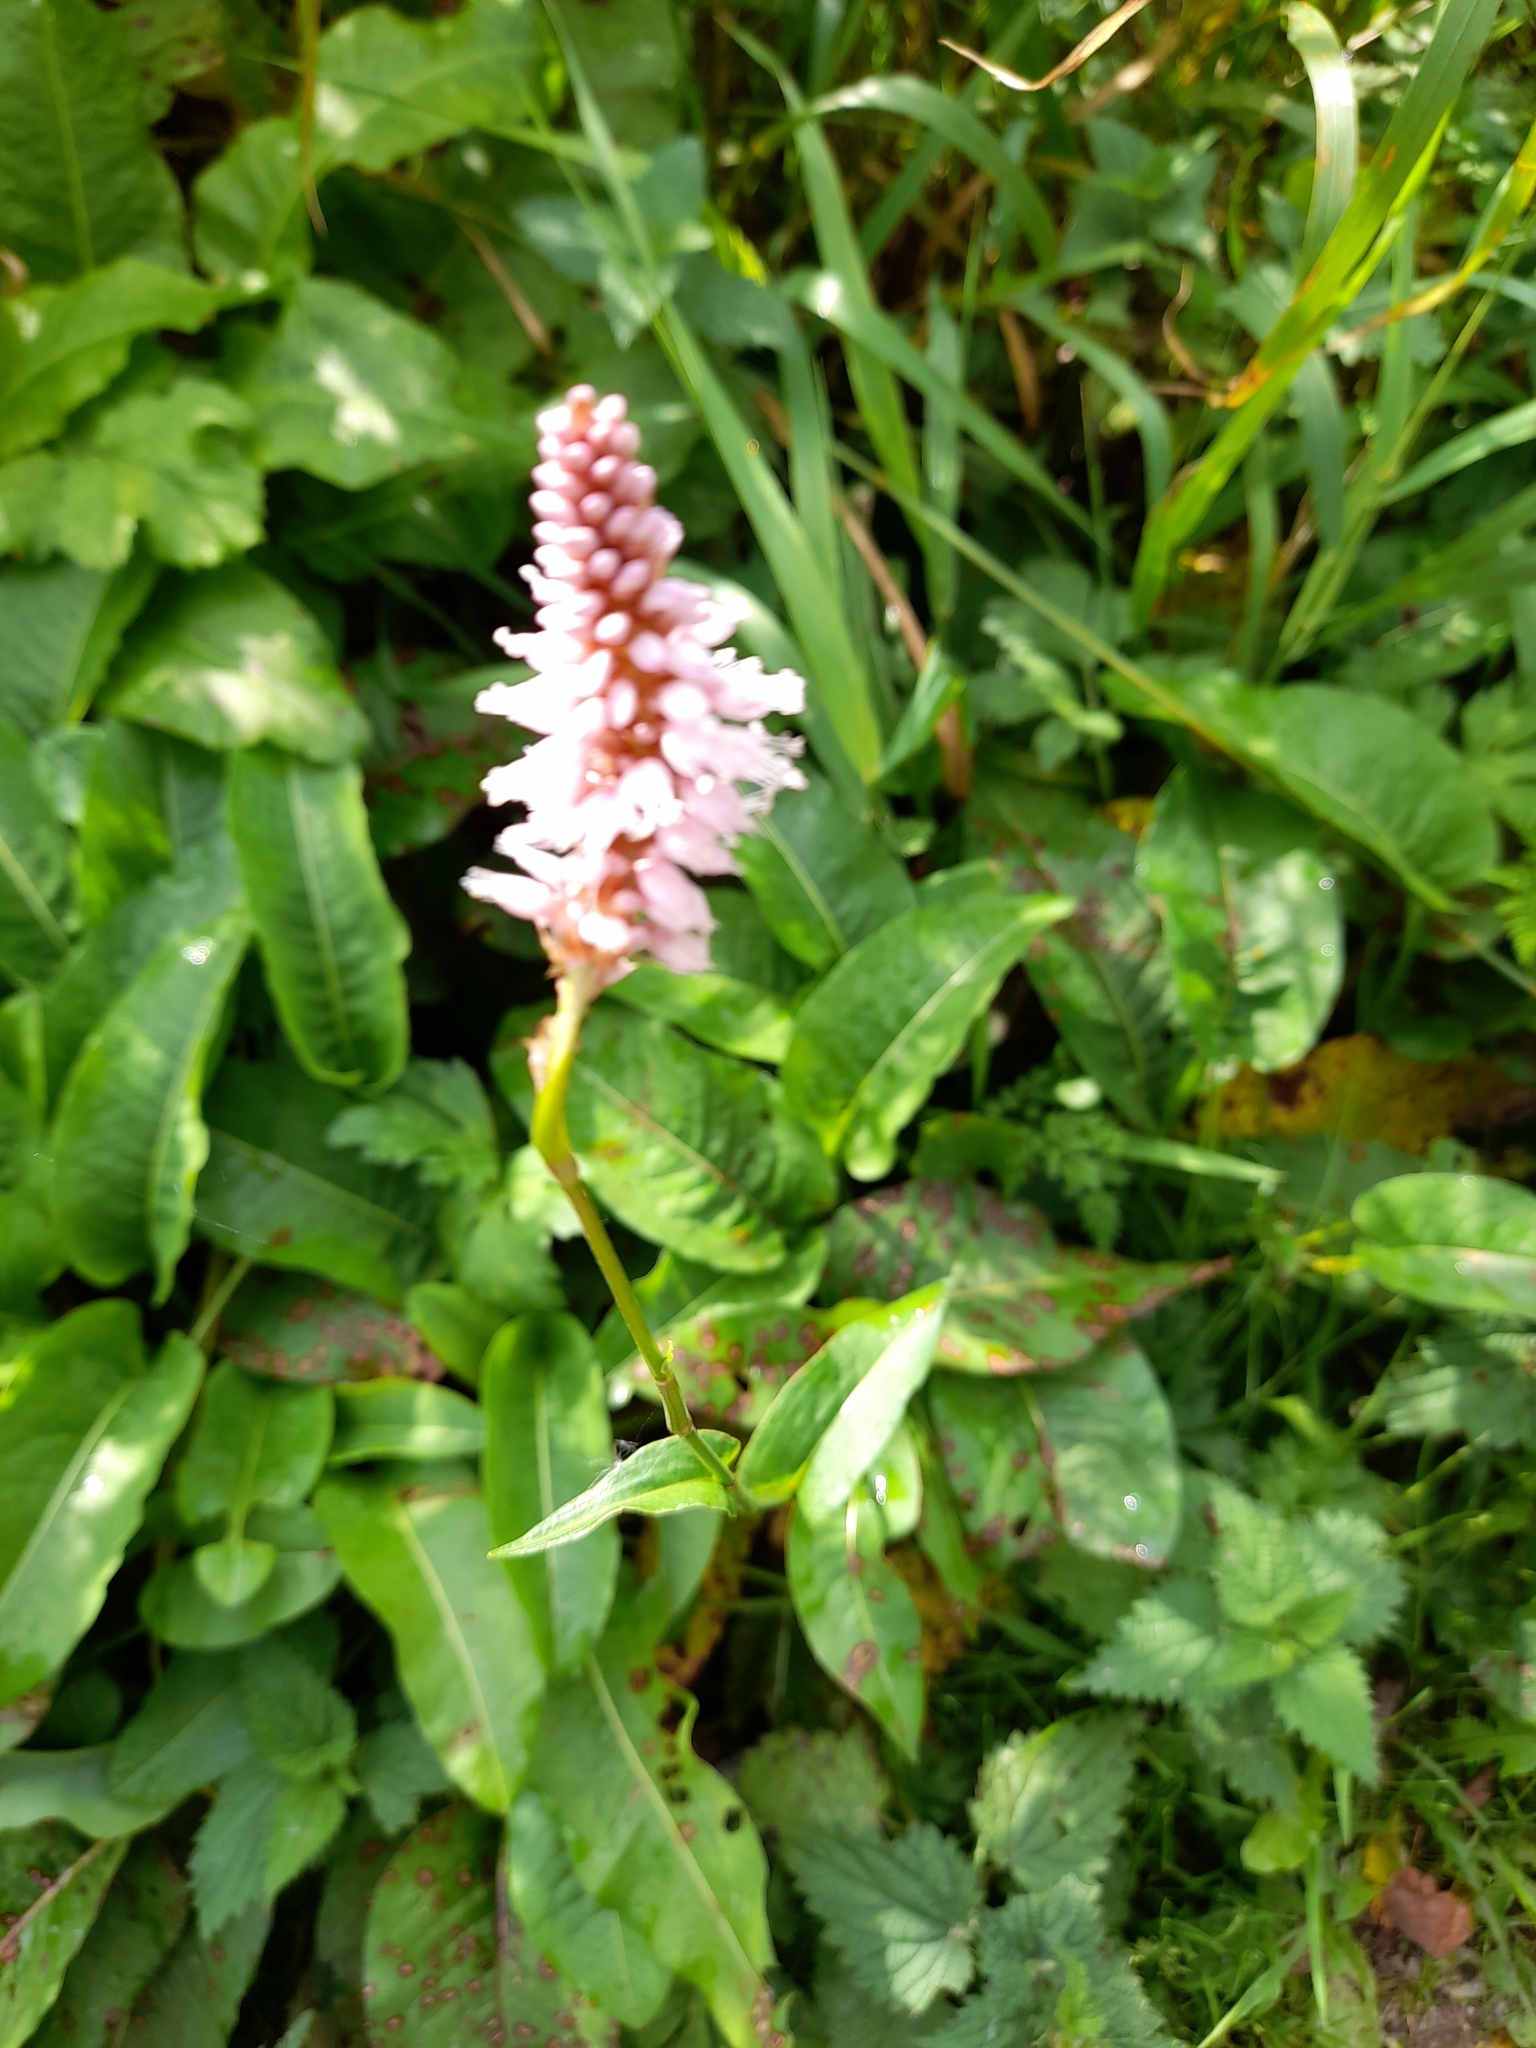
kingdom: Plantae
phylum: Tracheophyta
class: Magnoliopsida
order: Caryophyllales
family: Polygonaceae
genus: Bistorta
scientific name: Bistorta officinalis
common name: Common bistort
